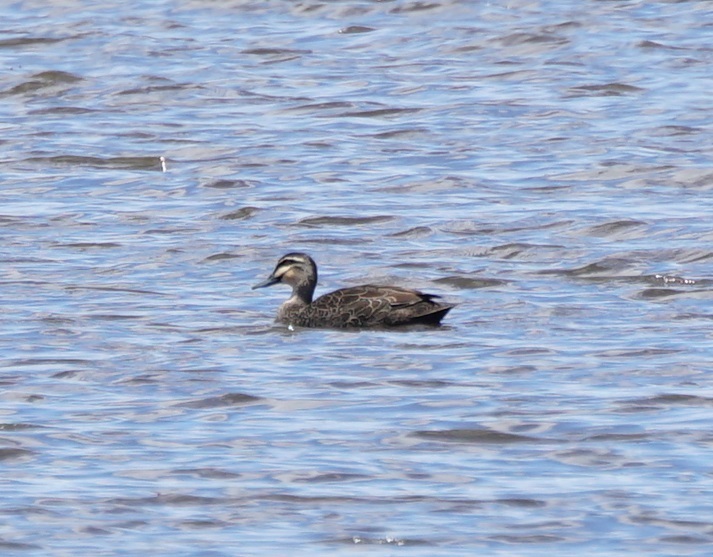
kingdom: Animalia
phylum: Chordata
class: Aves
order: Anseriformes
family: Anatidae
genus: Anas
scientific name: Anas superciliosa
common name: Pacific black duck
